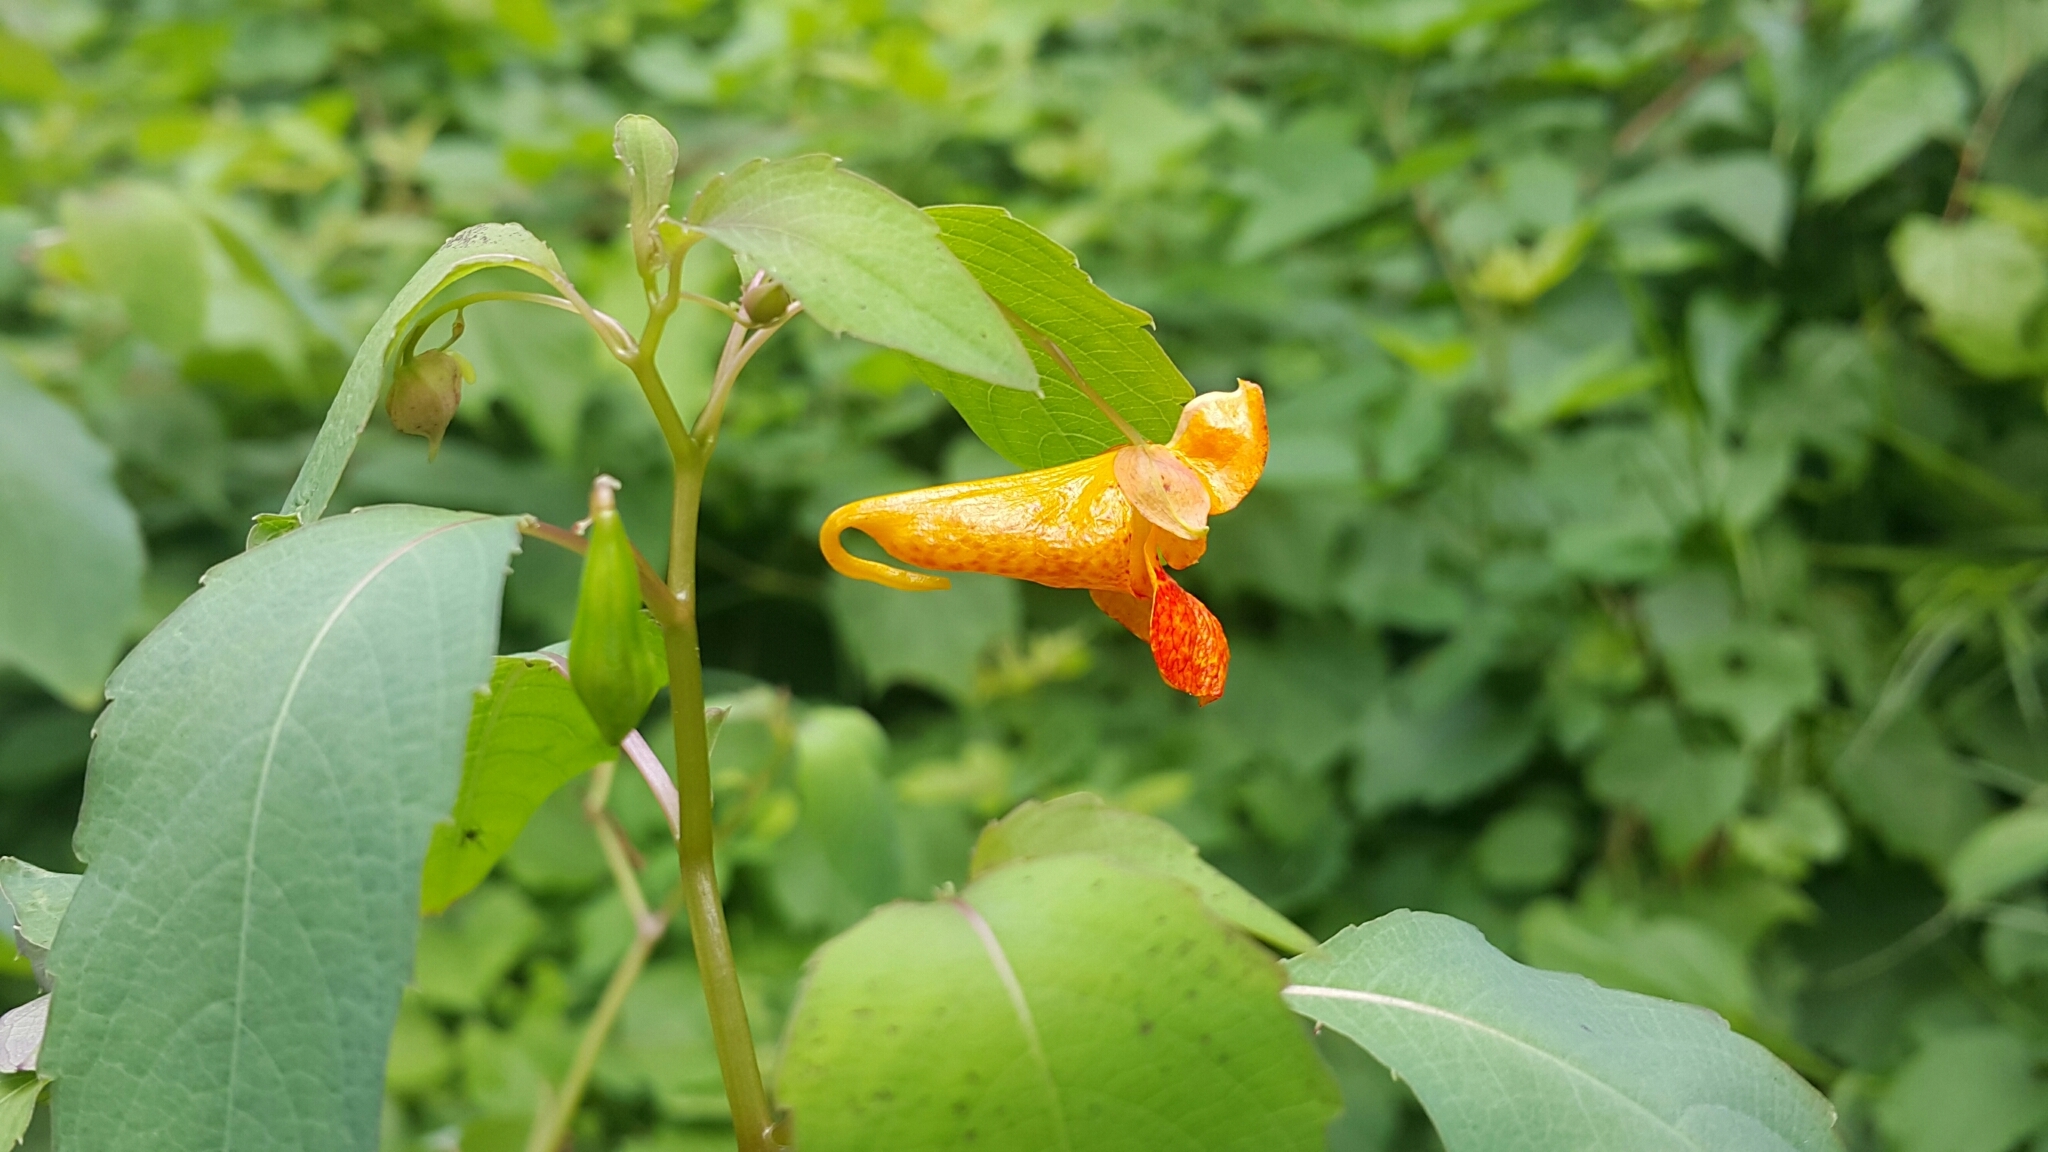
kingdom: Plantae
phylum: Tracheophyta
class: Magnoliopsida
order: Ericales
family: Balsaminaceae
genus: Impatiens
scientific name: Impatiens capensis
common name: Orange balsam
